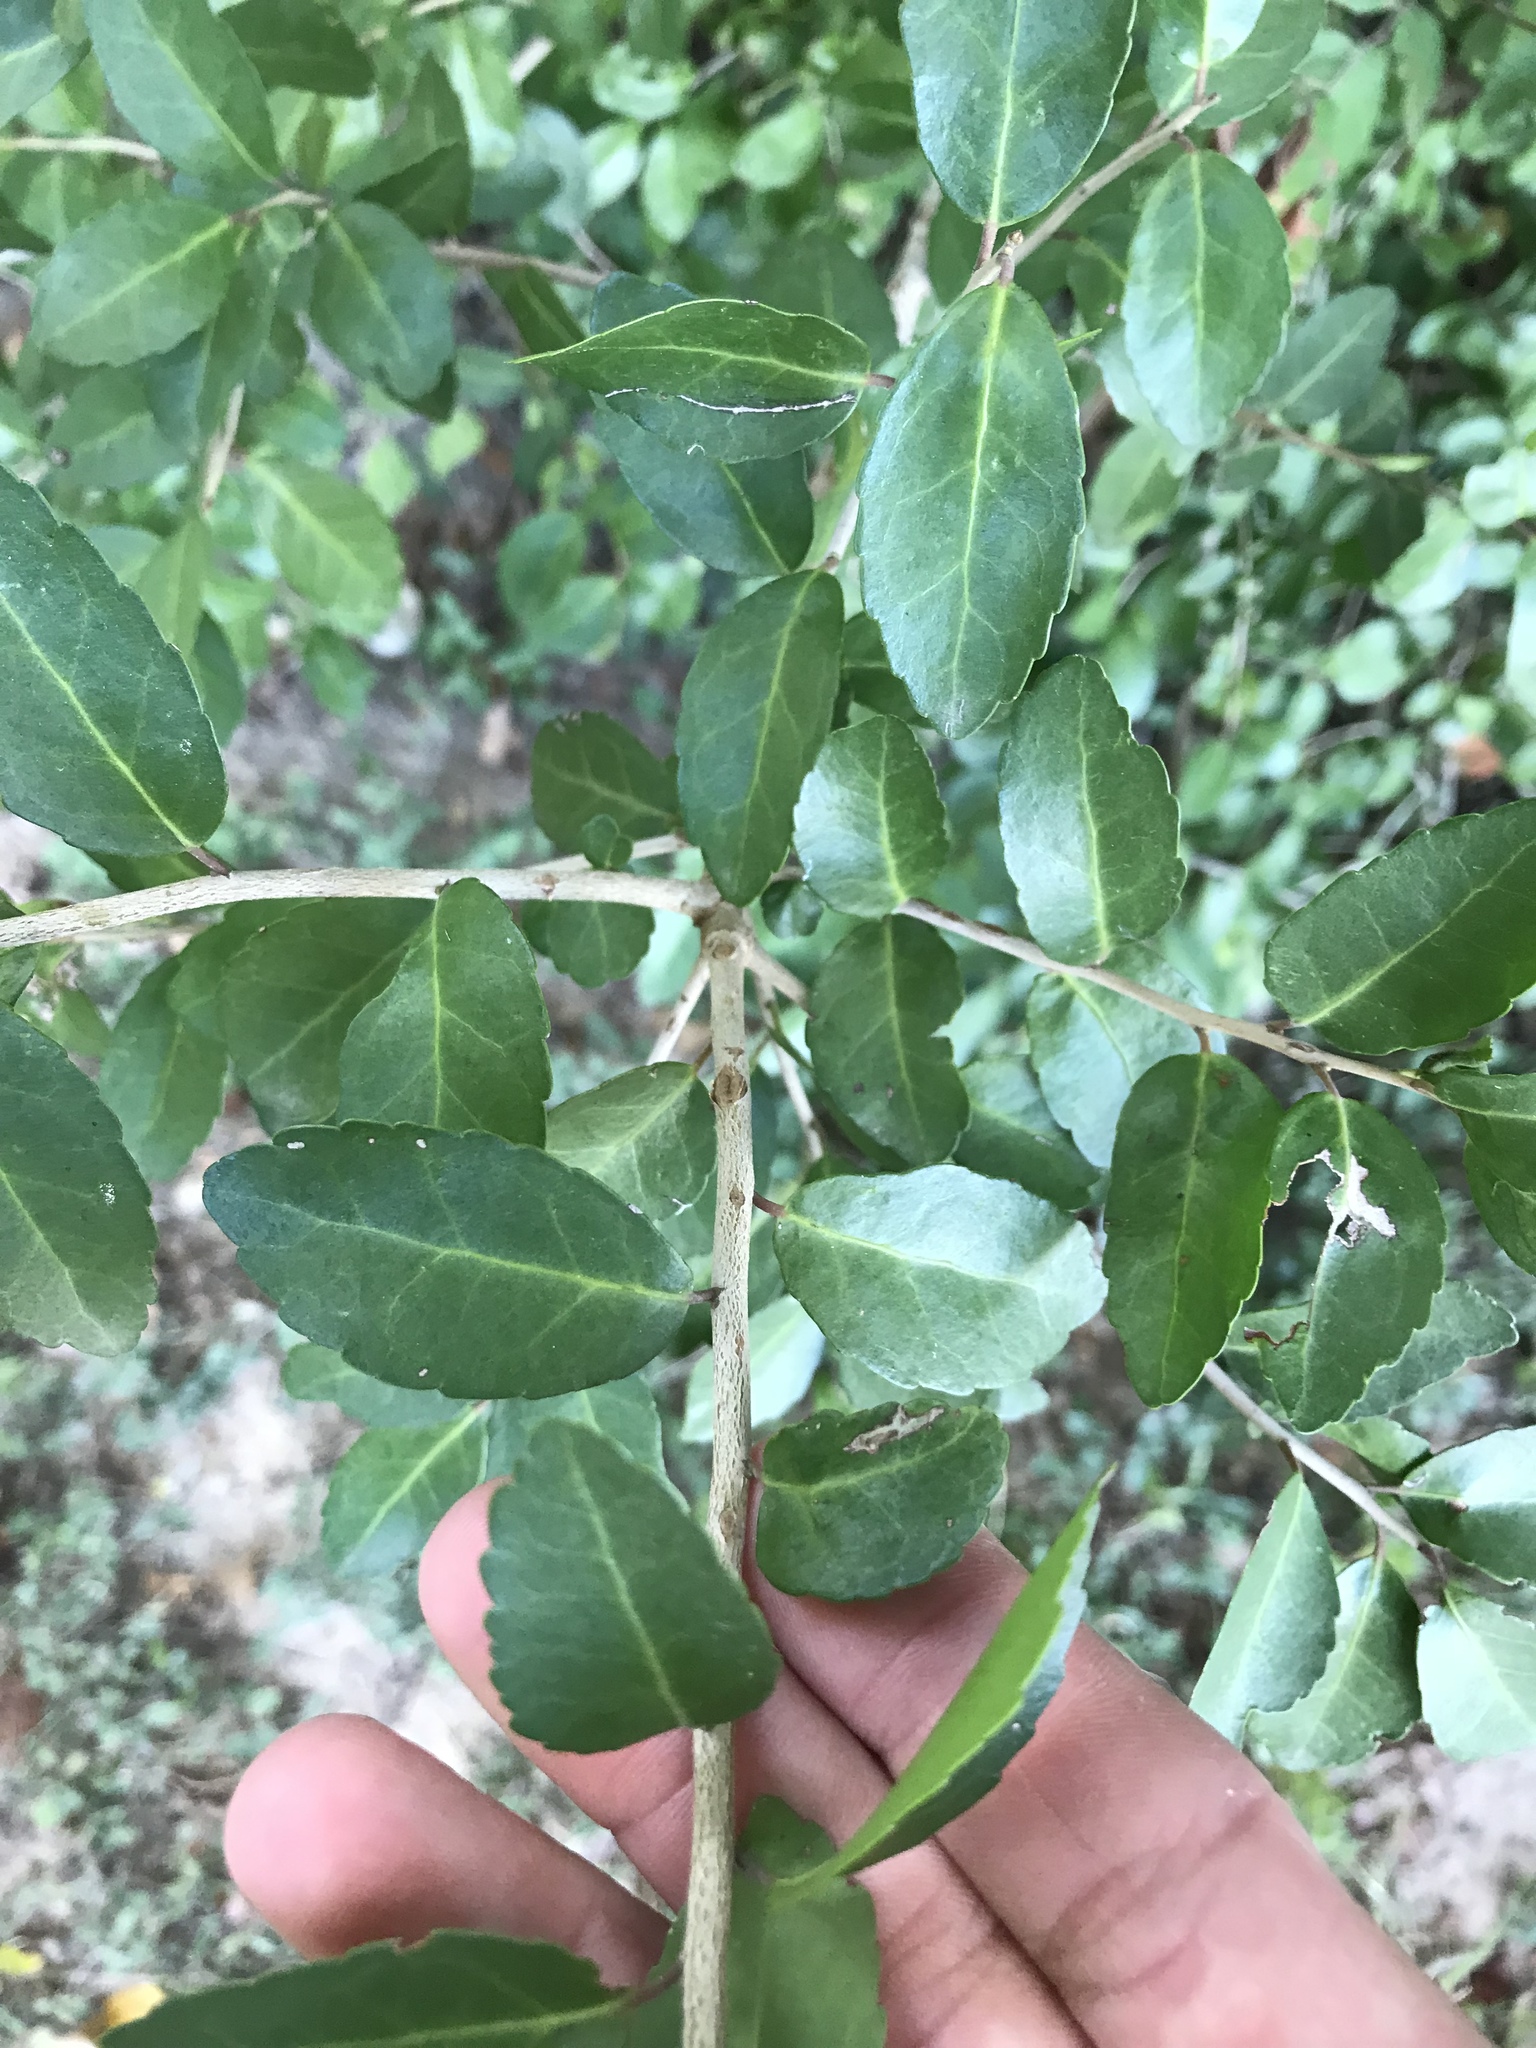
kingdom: Plantae
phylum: Tracheophyta
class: Magnoliopsida
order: Aquifoliales
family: Aquifoliaceae
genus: Ilex
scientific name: Ilex vomitoria
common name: Yaupon holly
